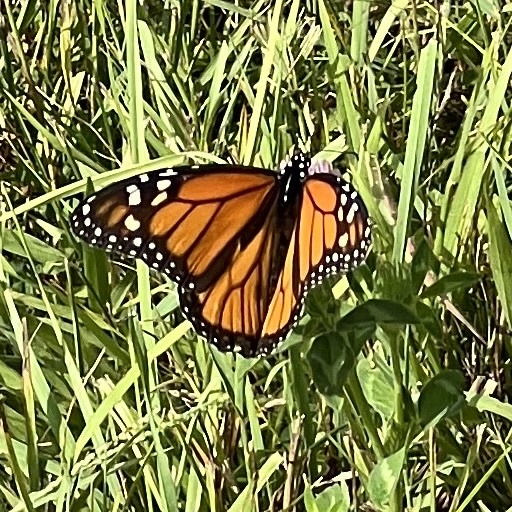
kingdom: Animalia
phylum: Arthropoda
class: Insecta
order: Lepidoptera
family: Nymphalidae
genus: Danaus
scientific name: Danaus plexippus
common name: Monarch
